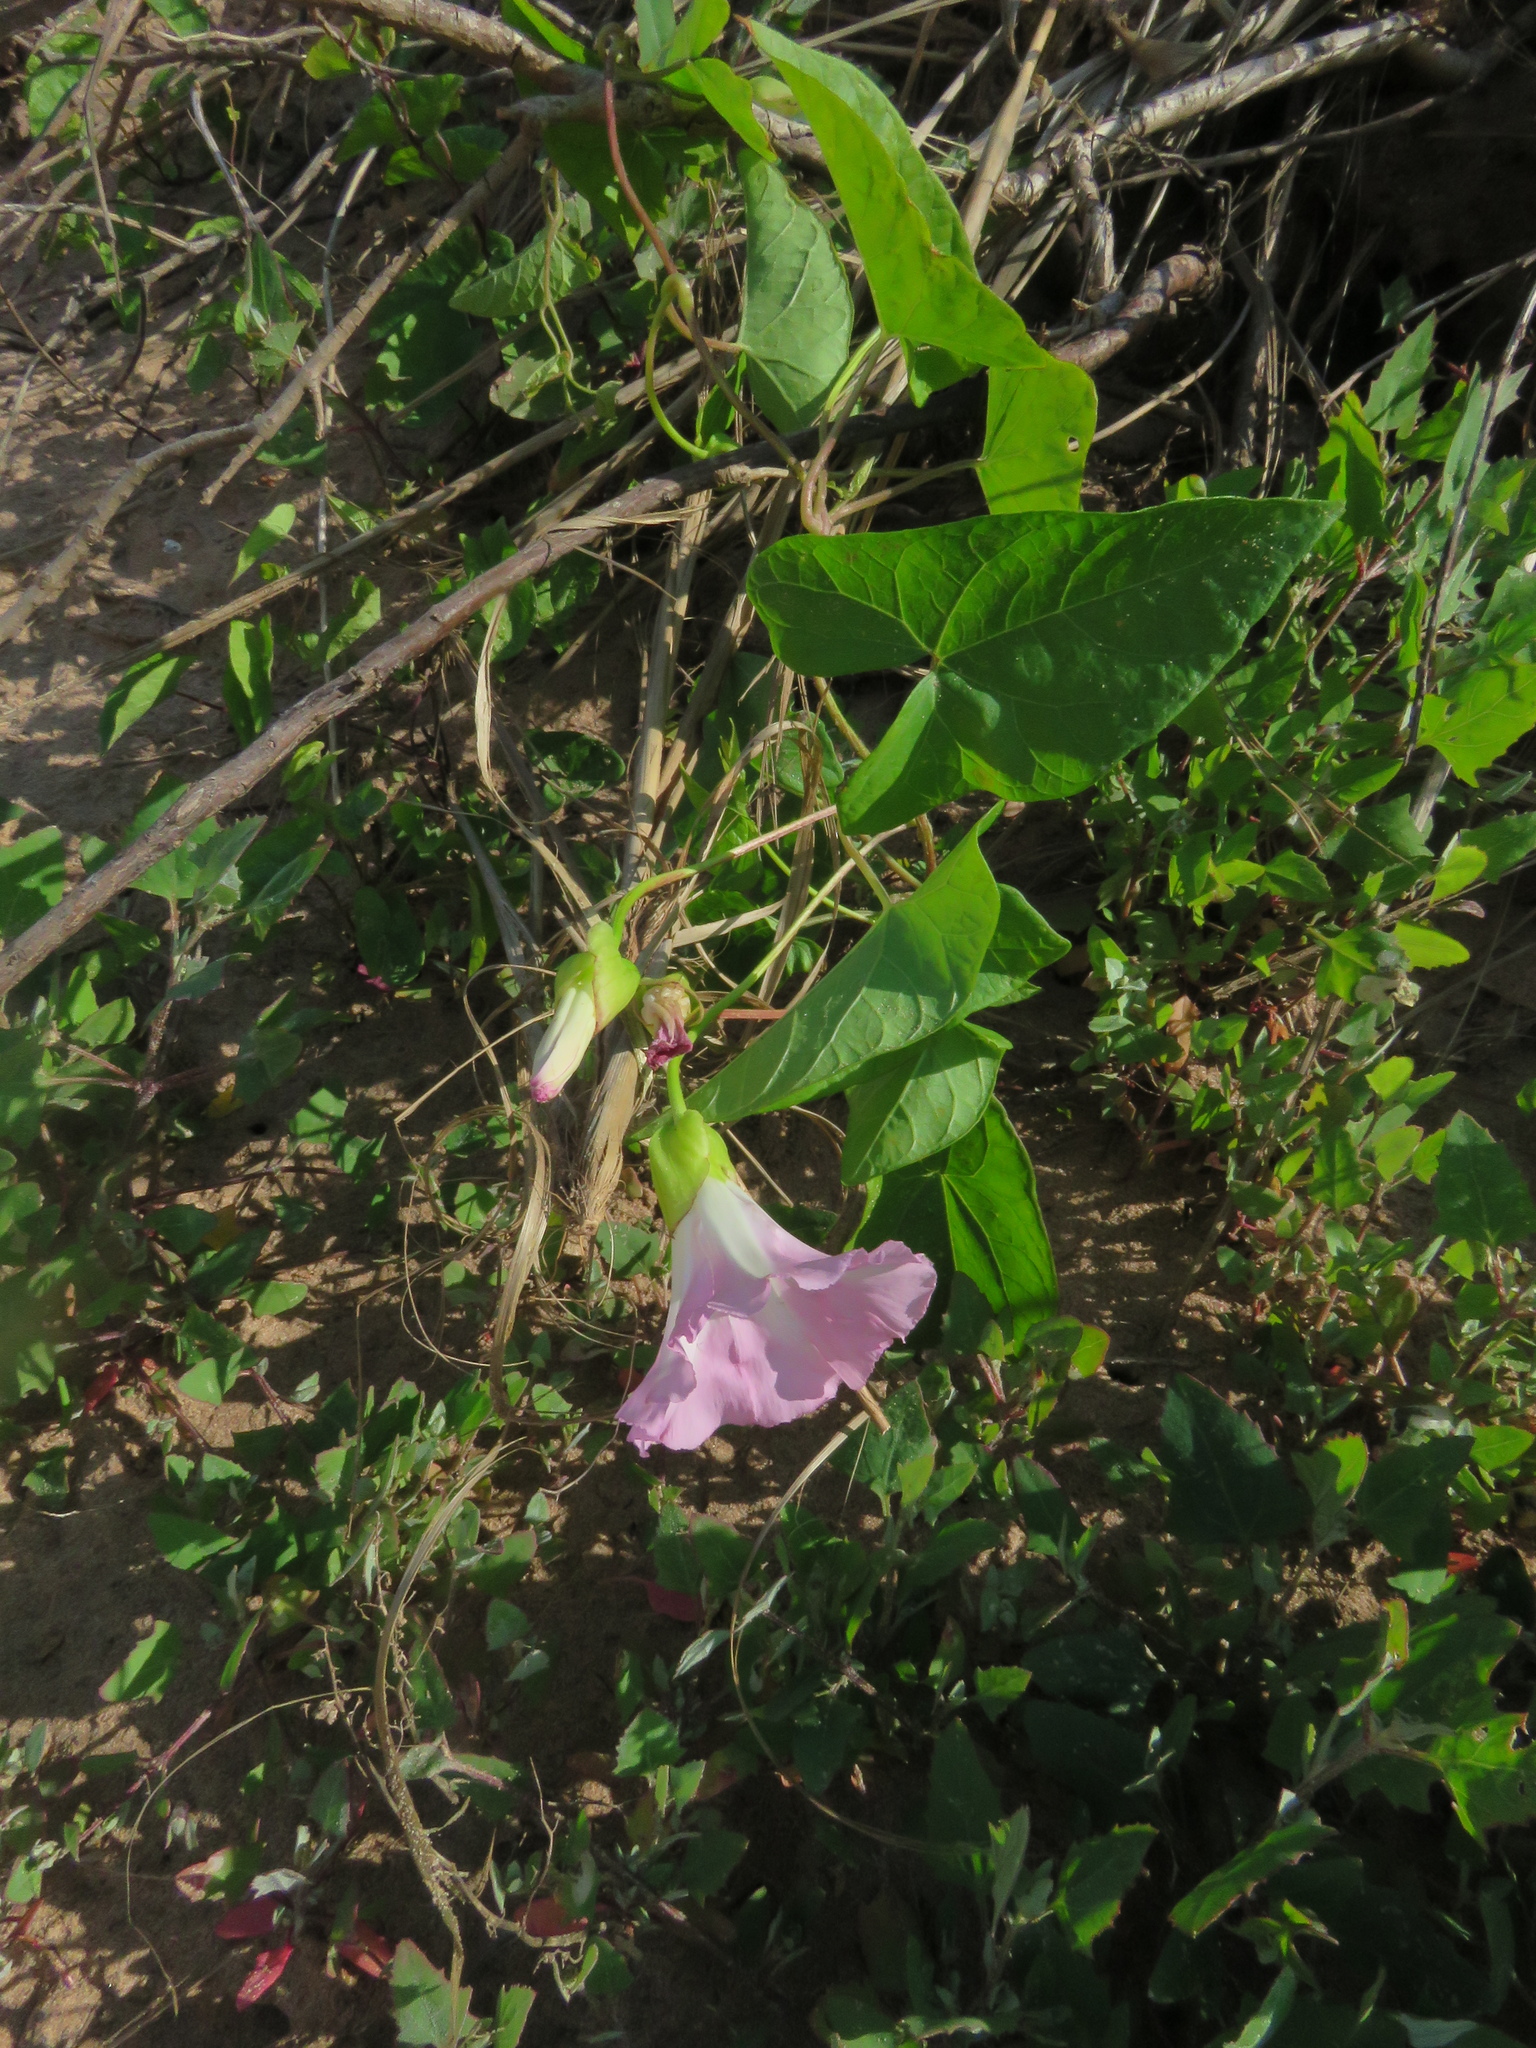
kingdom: Plantae
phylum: Tracheophyta
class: Magnoliopsida
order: Solanales
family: Convolvulaceae
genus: Calystegia
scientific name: Calystegia sepium
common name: Hedge bindweed
